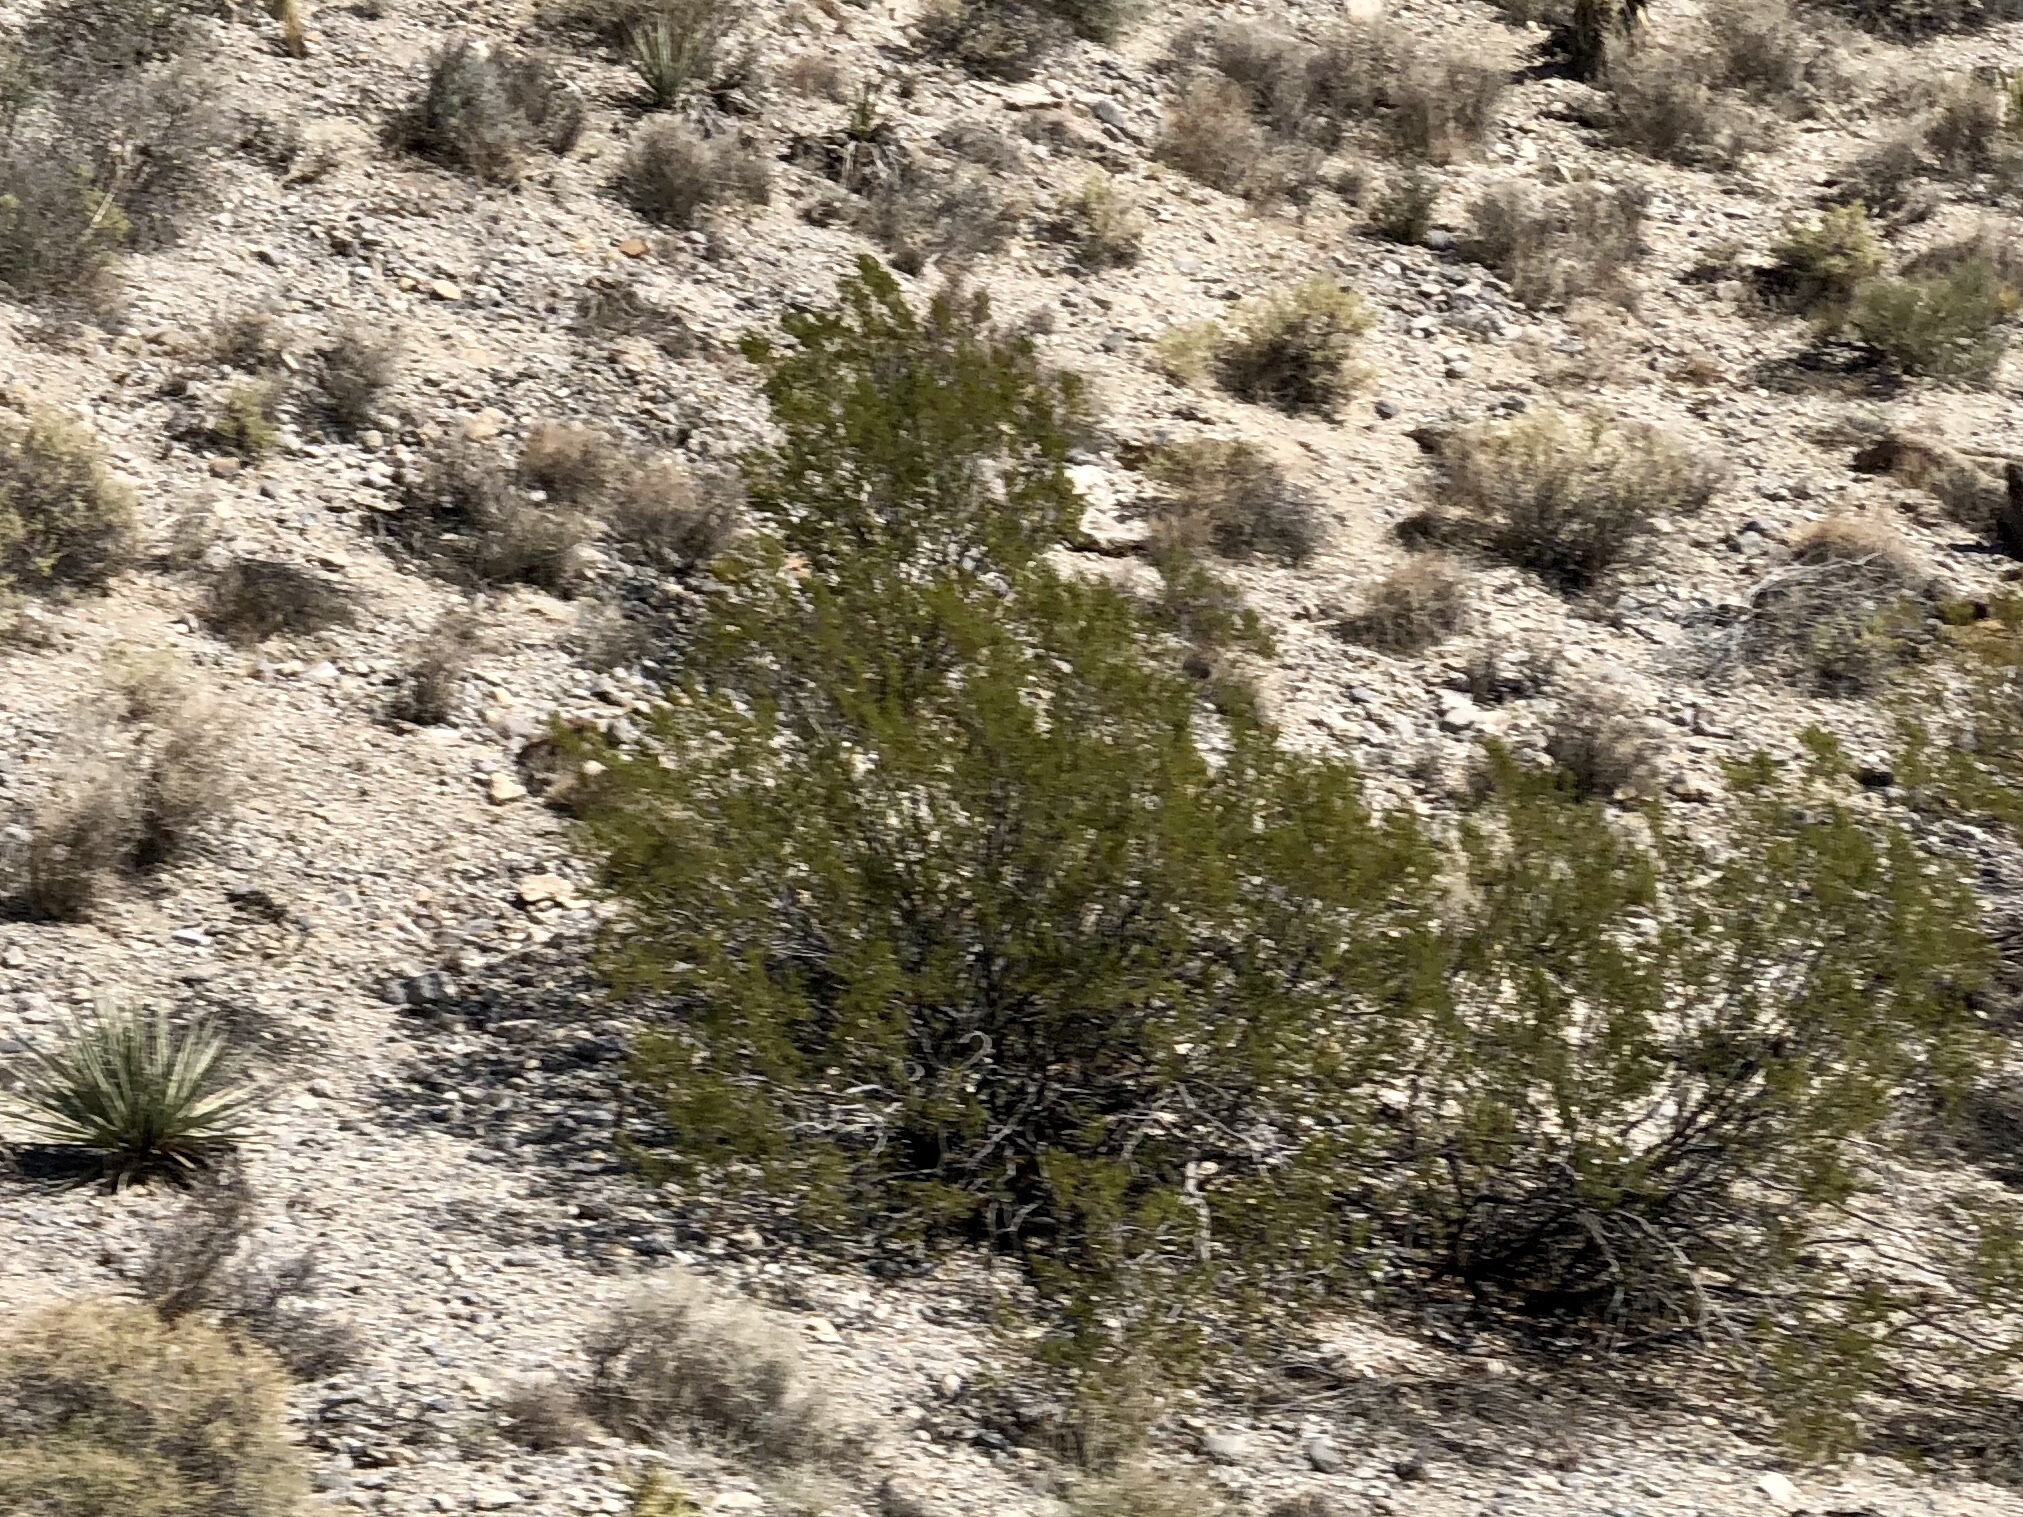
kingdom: Plantae
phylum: Tracheophyta
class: Magnoliopsida
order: Zygophyllales
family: Zygophyllaceae
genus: Larrea
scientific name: Larrea tridentata
